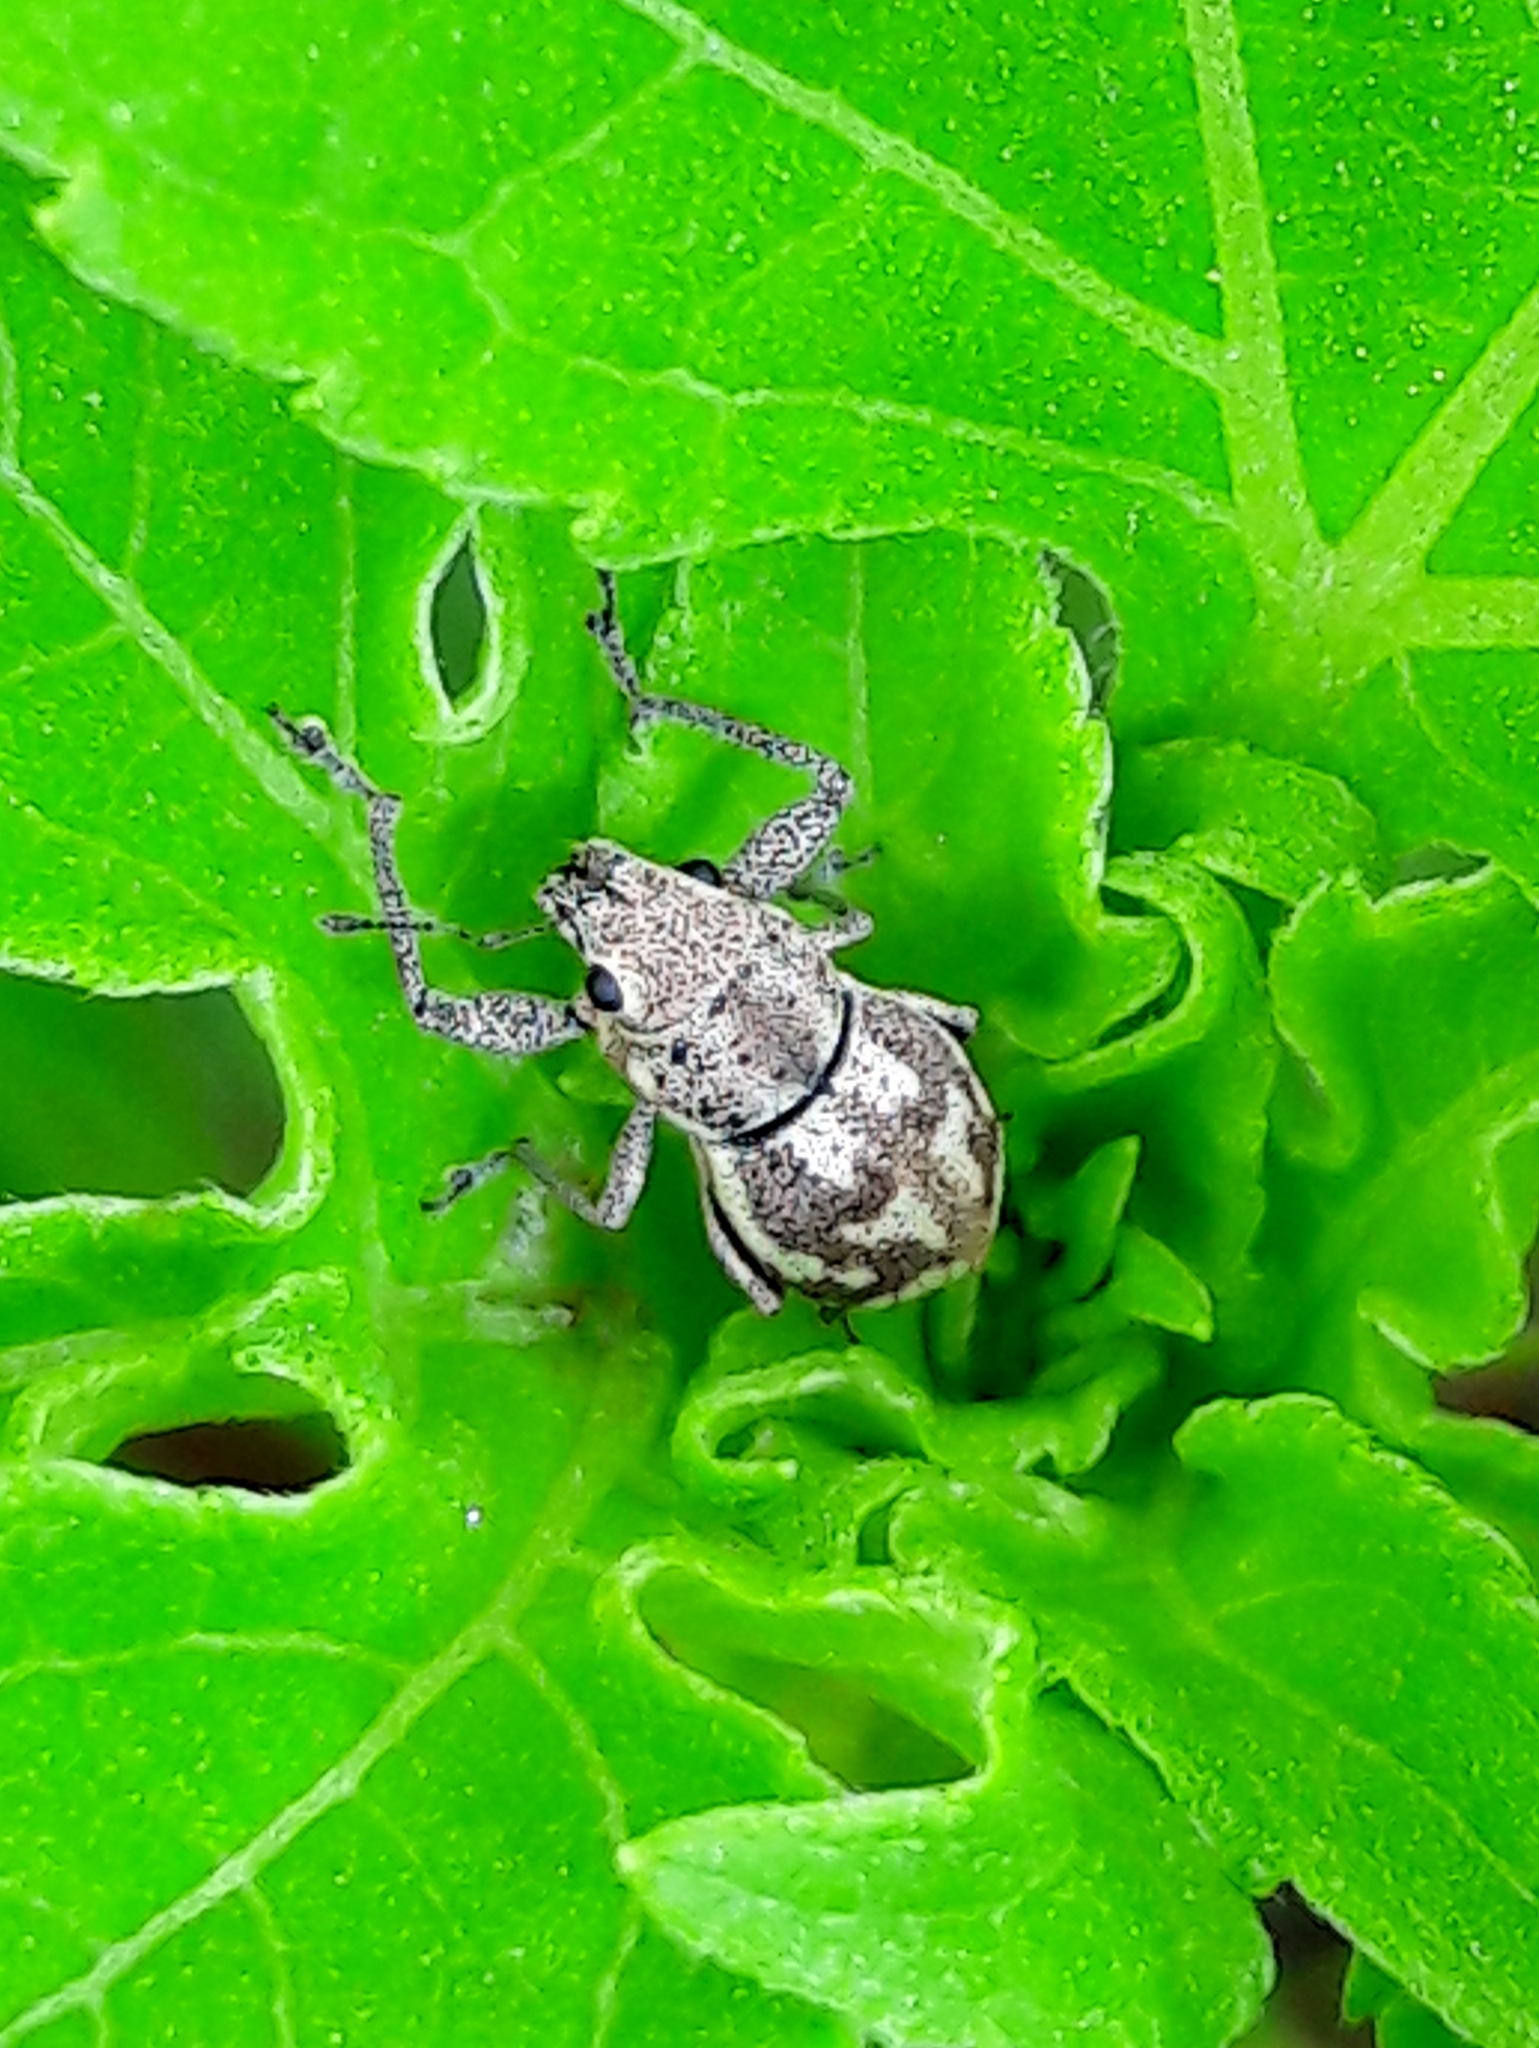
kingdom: Animalia
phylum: Arthropoda
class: Insecta
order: Coleoptera
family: Curculionidae
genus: Parapantomorus
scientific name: Parapantomorus fluctuosus
